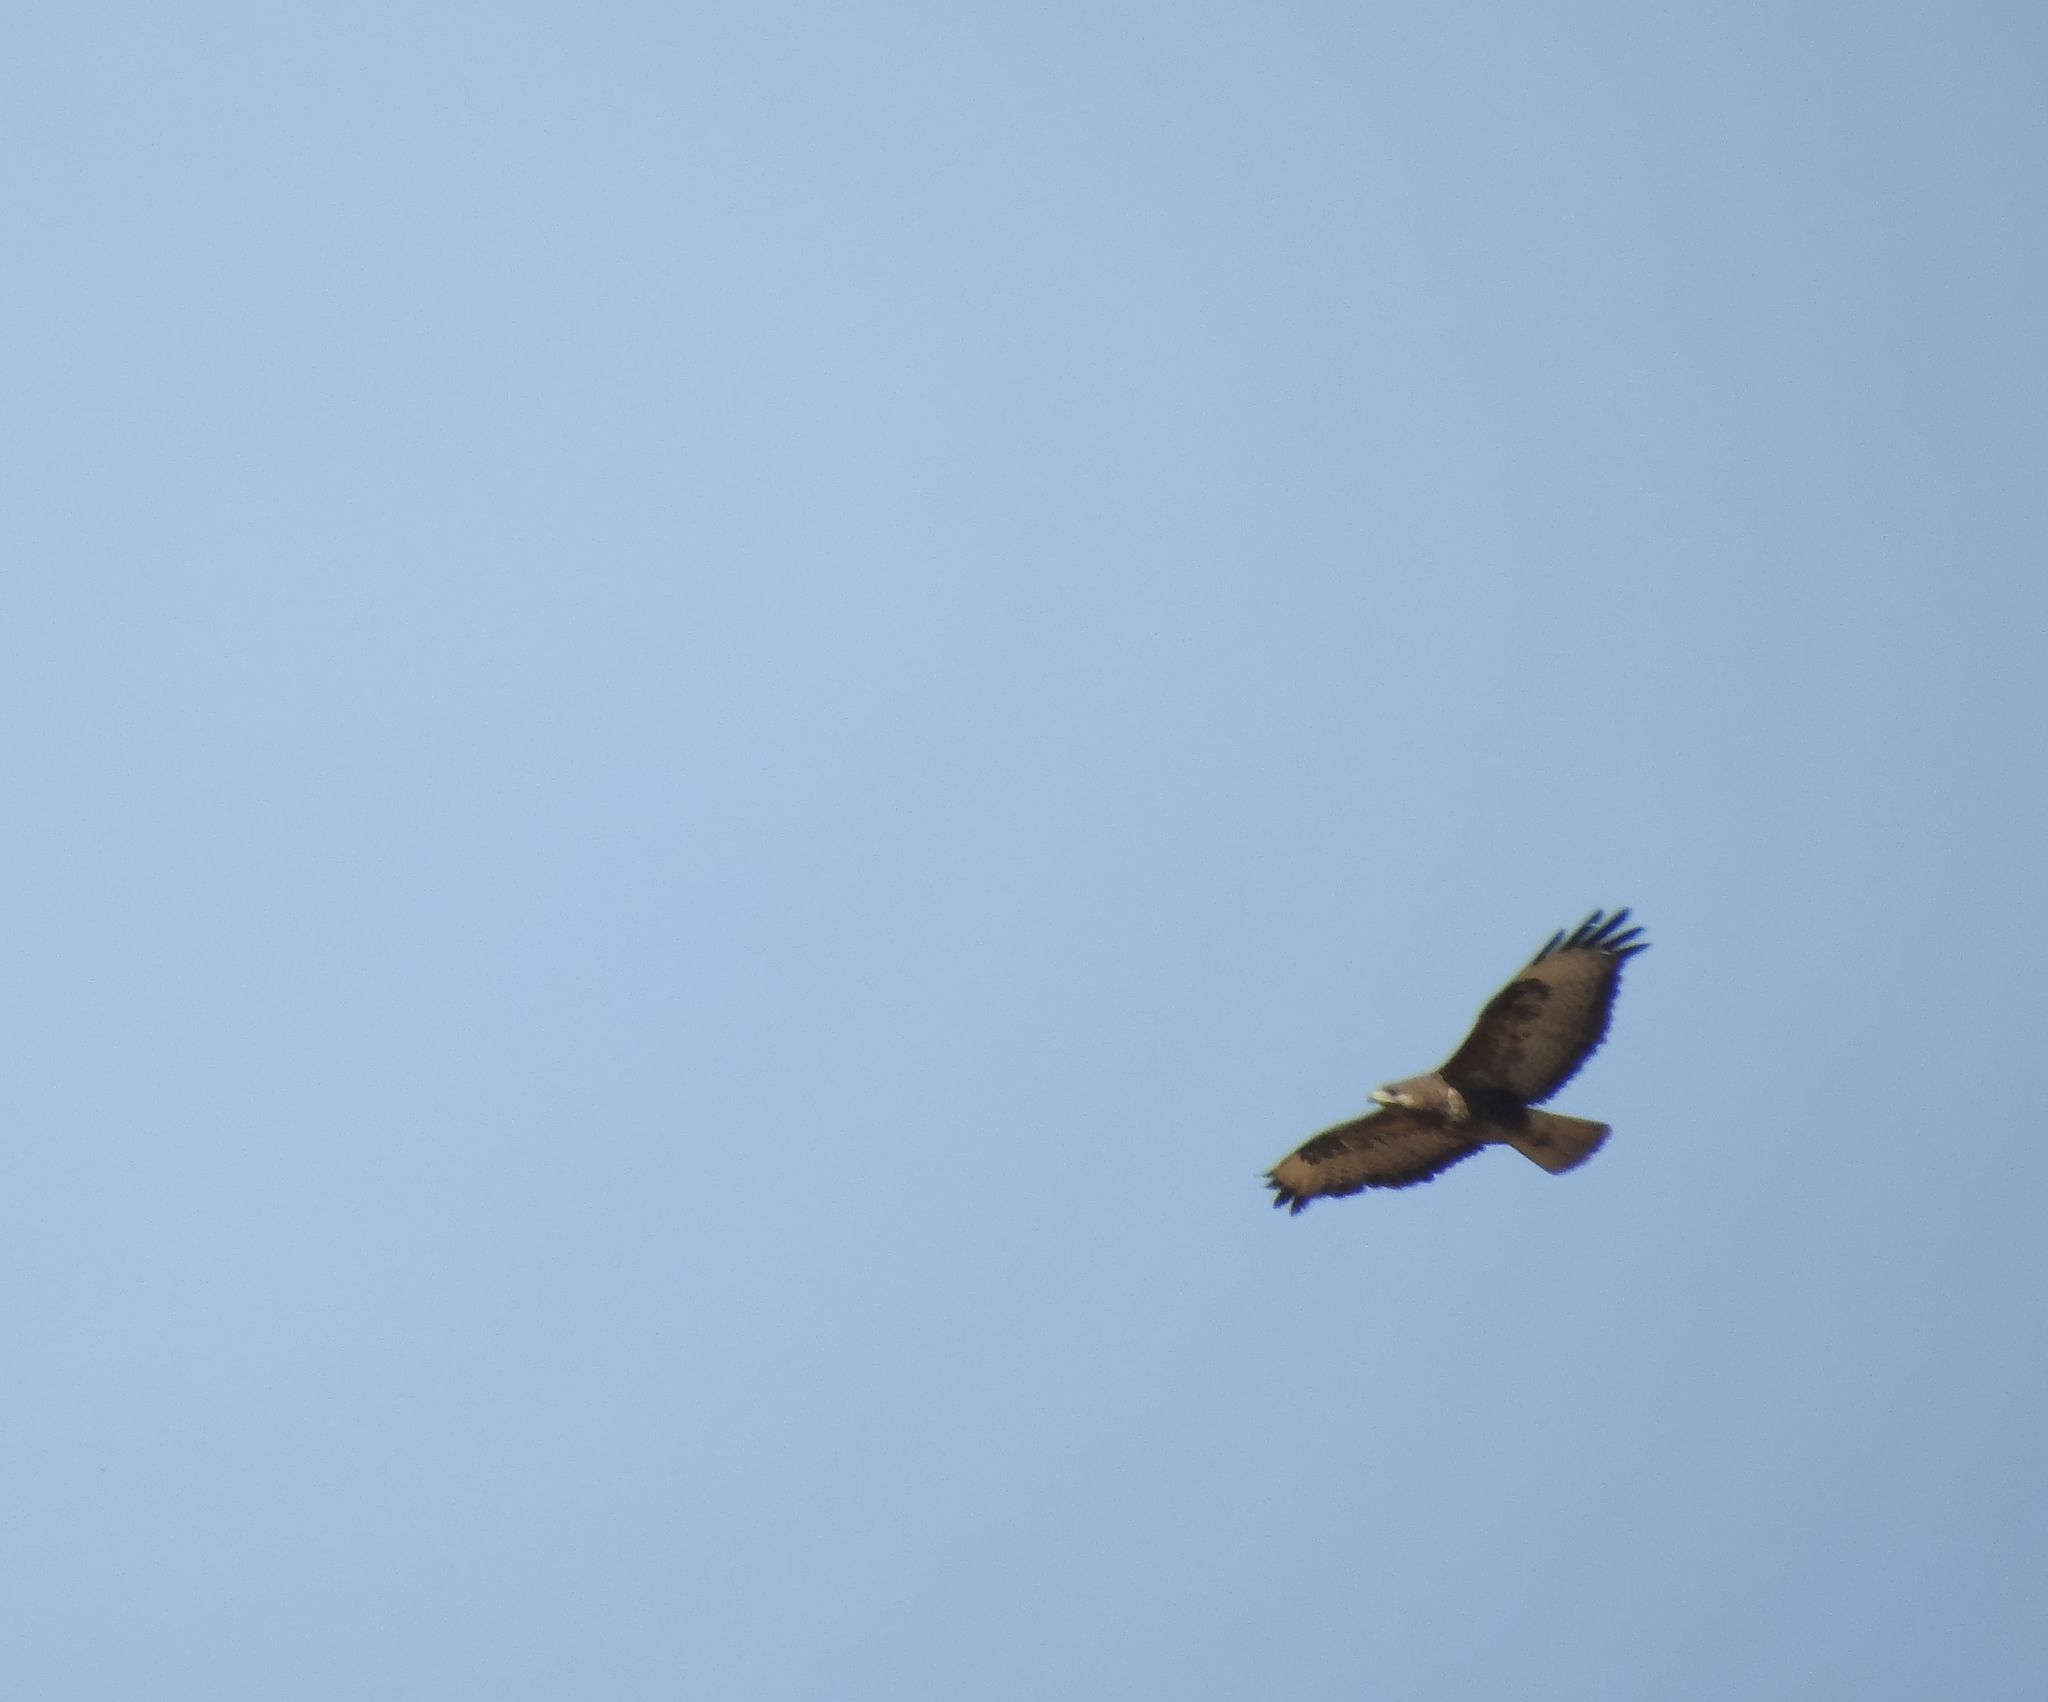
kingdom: Animalia
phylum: Chordata
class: Aves
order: Accipitriformes
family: Accipitridae
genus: Buteo
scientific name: Buteo buteo
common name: Common buzzard
